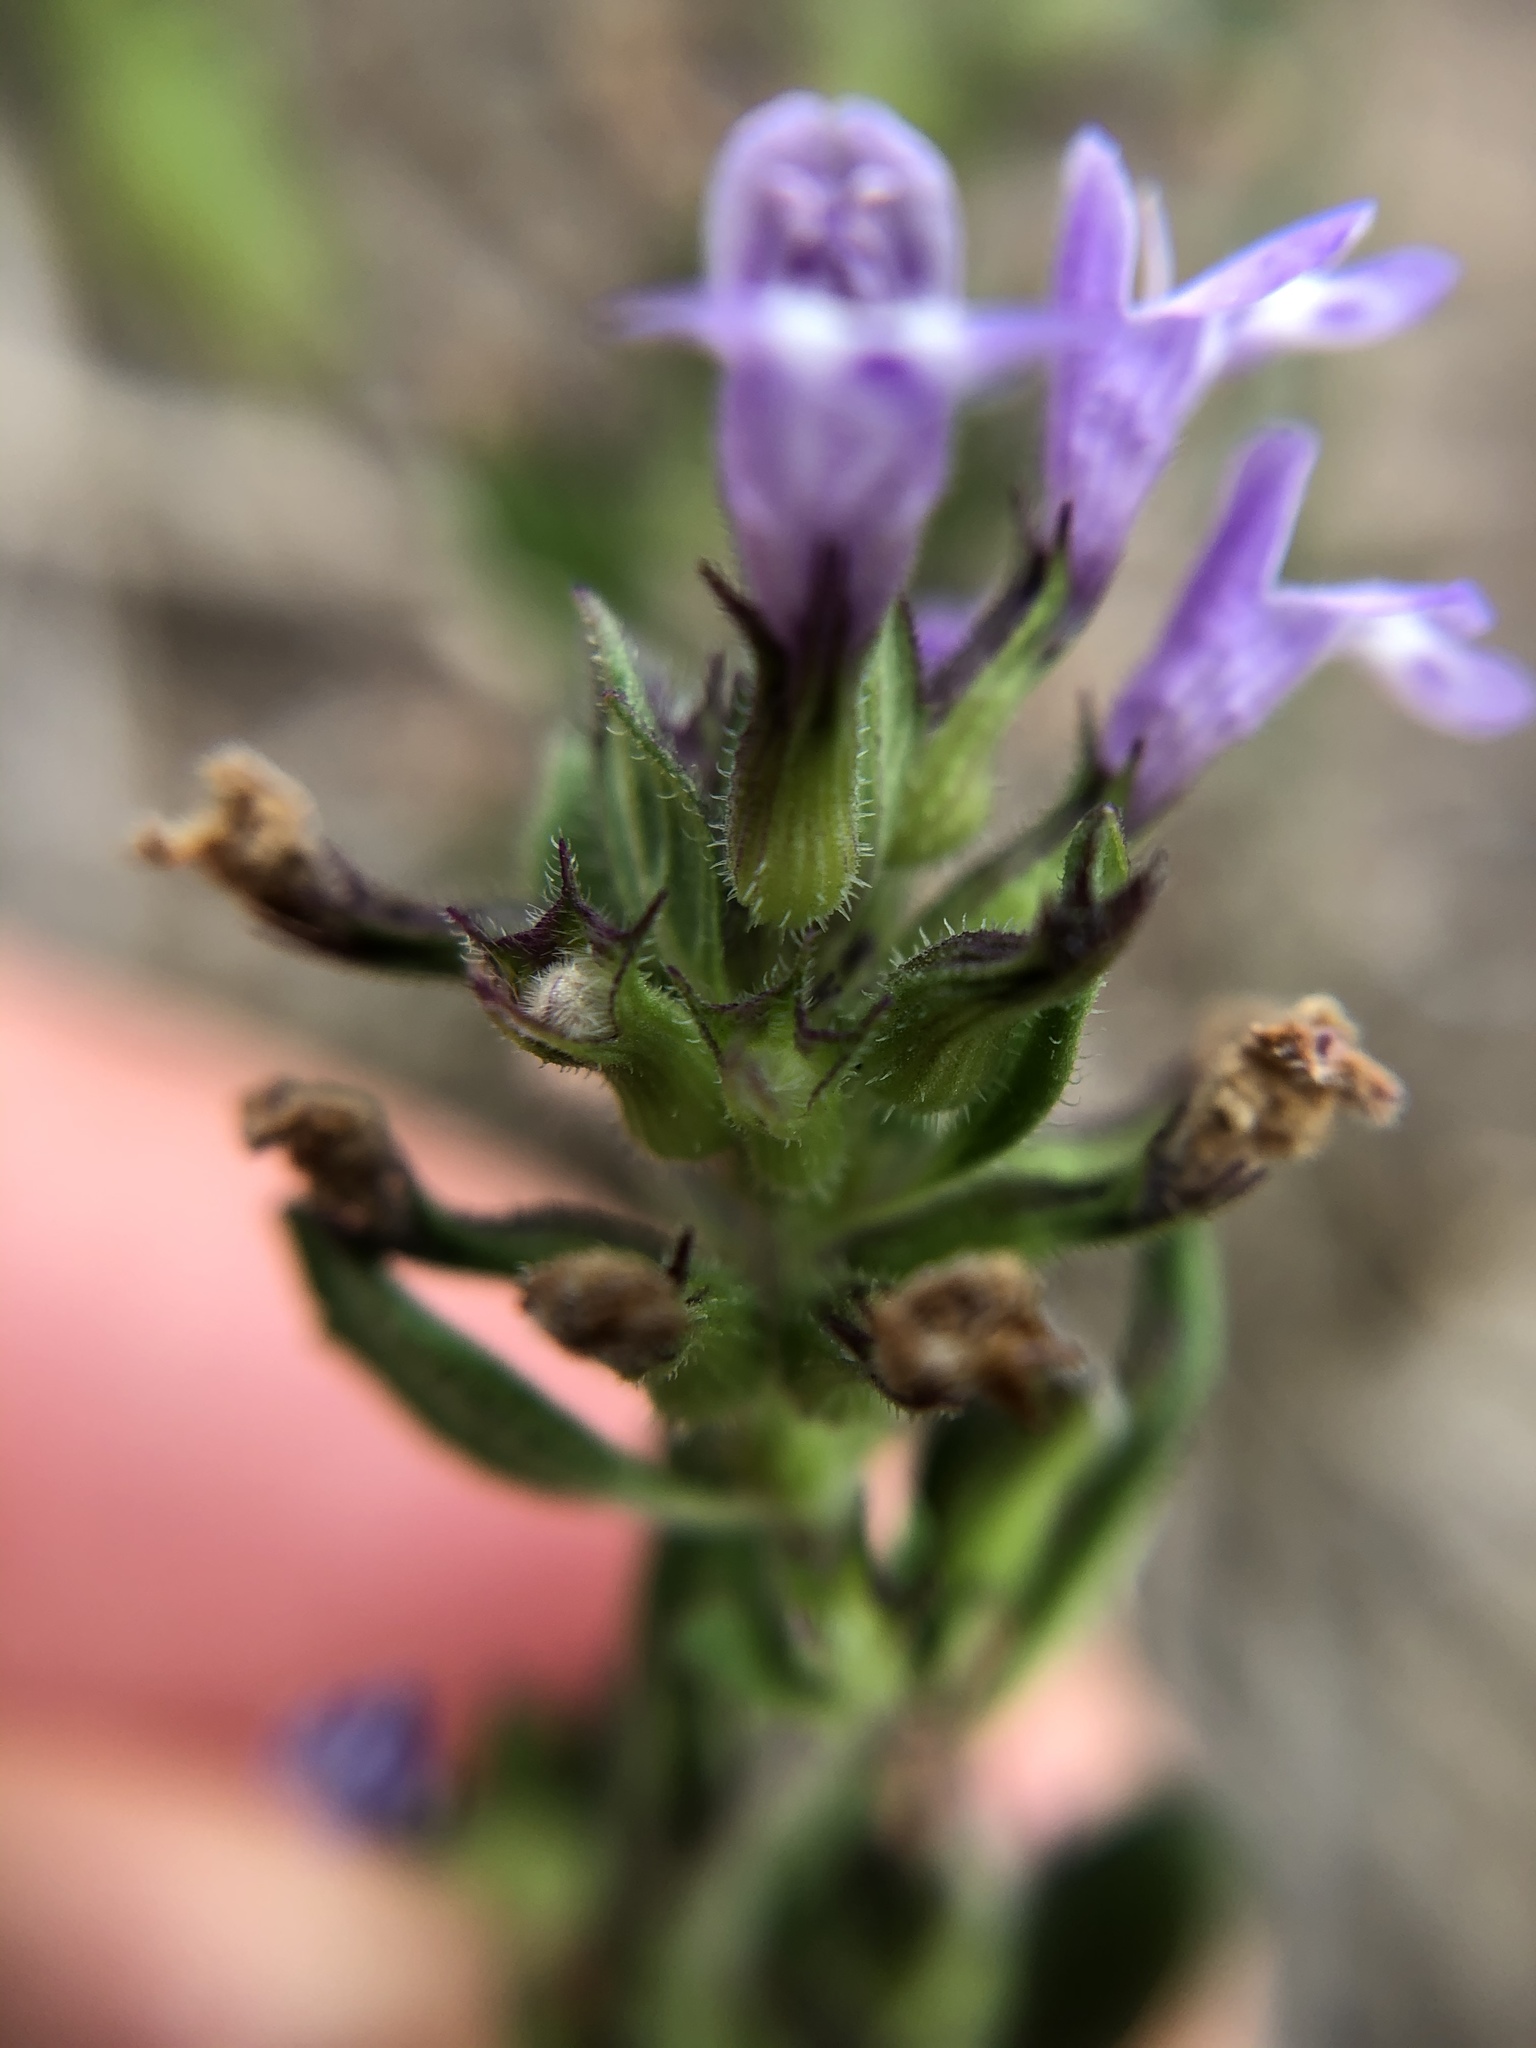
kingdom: Plantae
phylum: Tracheophyta
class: Magnoliopsida
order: Lamiales
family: Lamiaceae
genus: Clinopodium
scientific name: Clinopodium acinos
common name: Basil thyme
